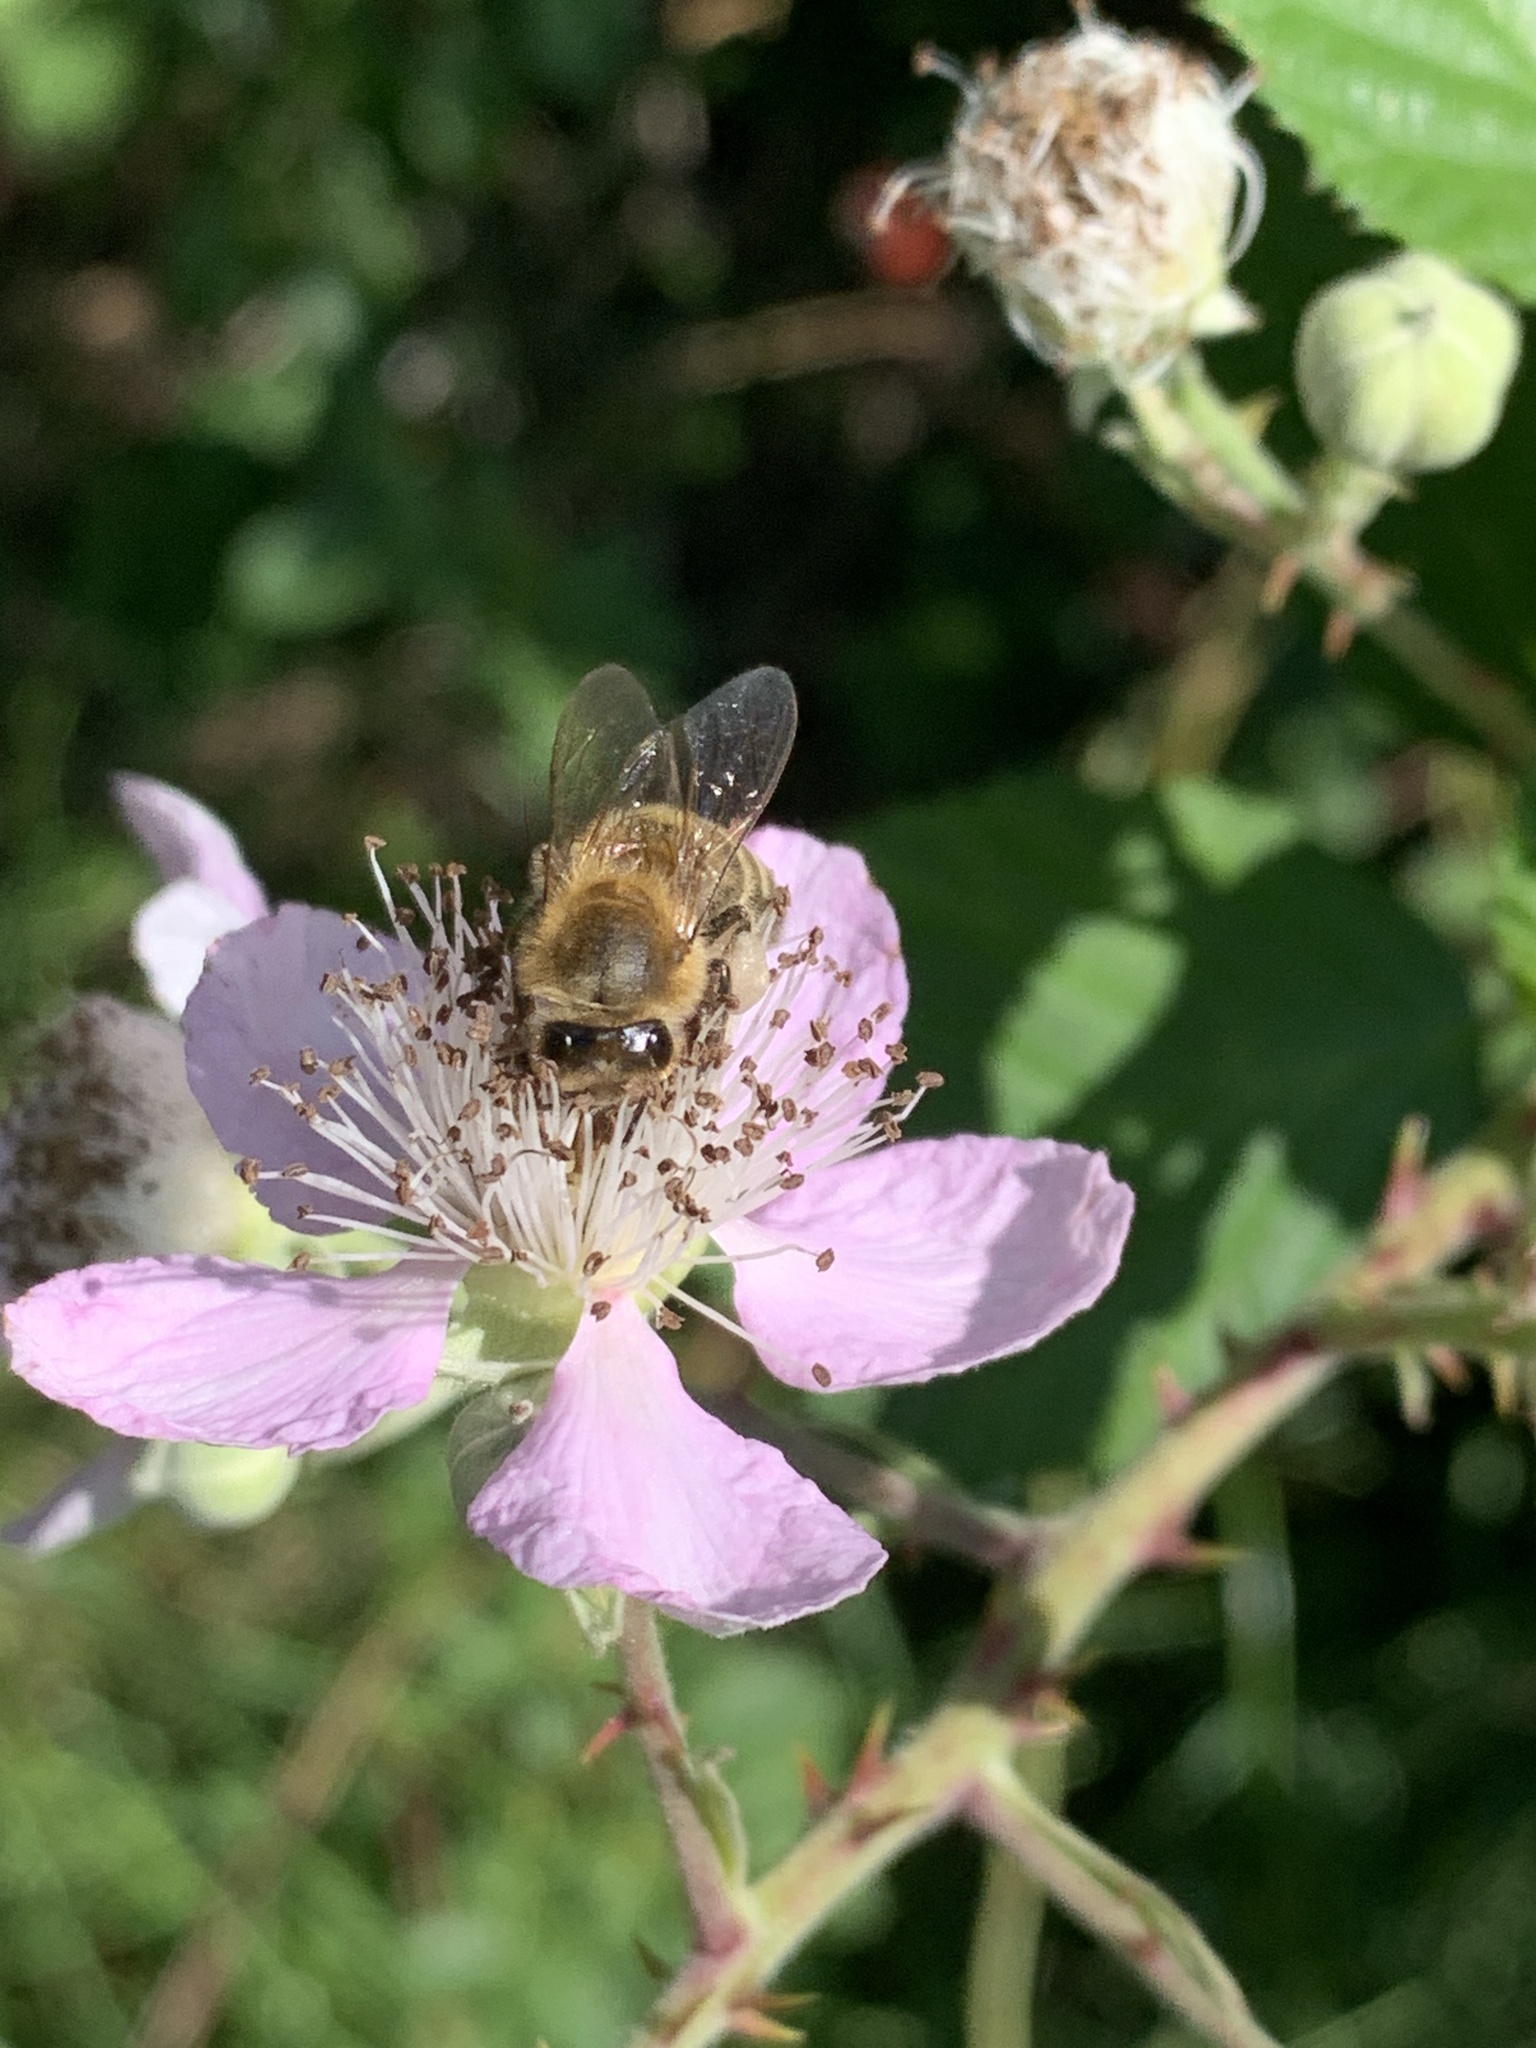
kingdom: Animalia
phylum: Arthropoda
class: Insecta
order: Hymenoptera
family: Apidae
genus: Apis
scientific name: Apis mellifera
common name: Honey bee
